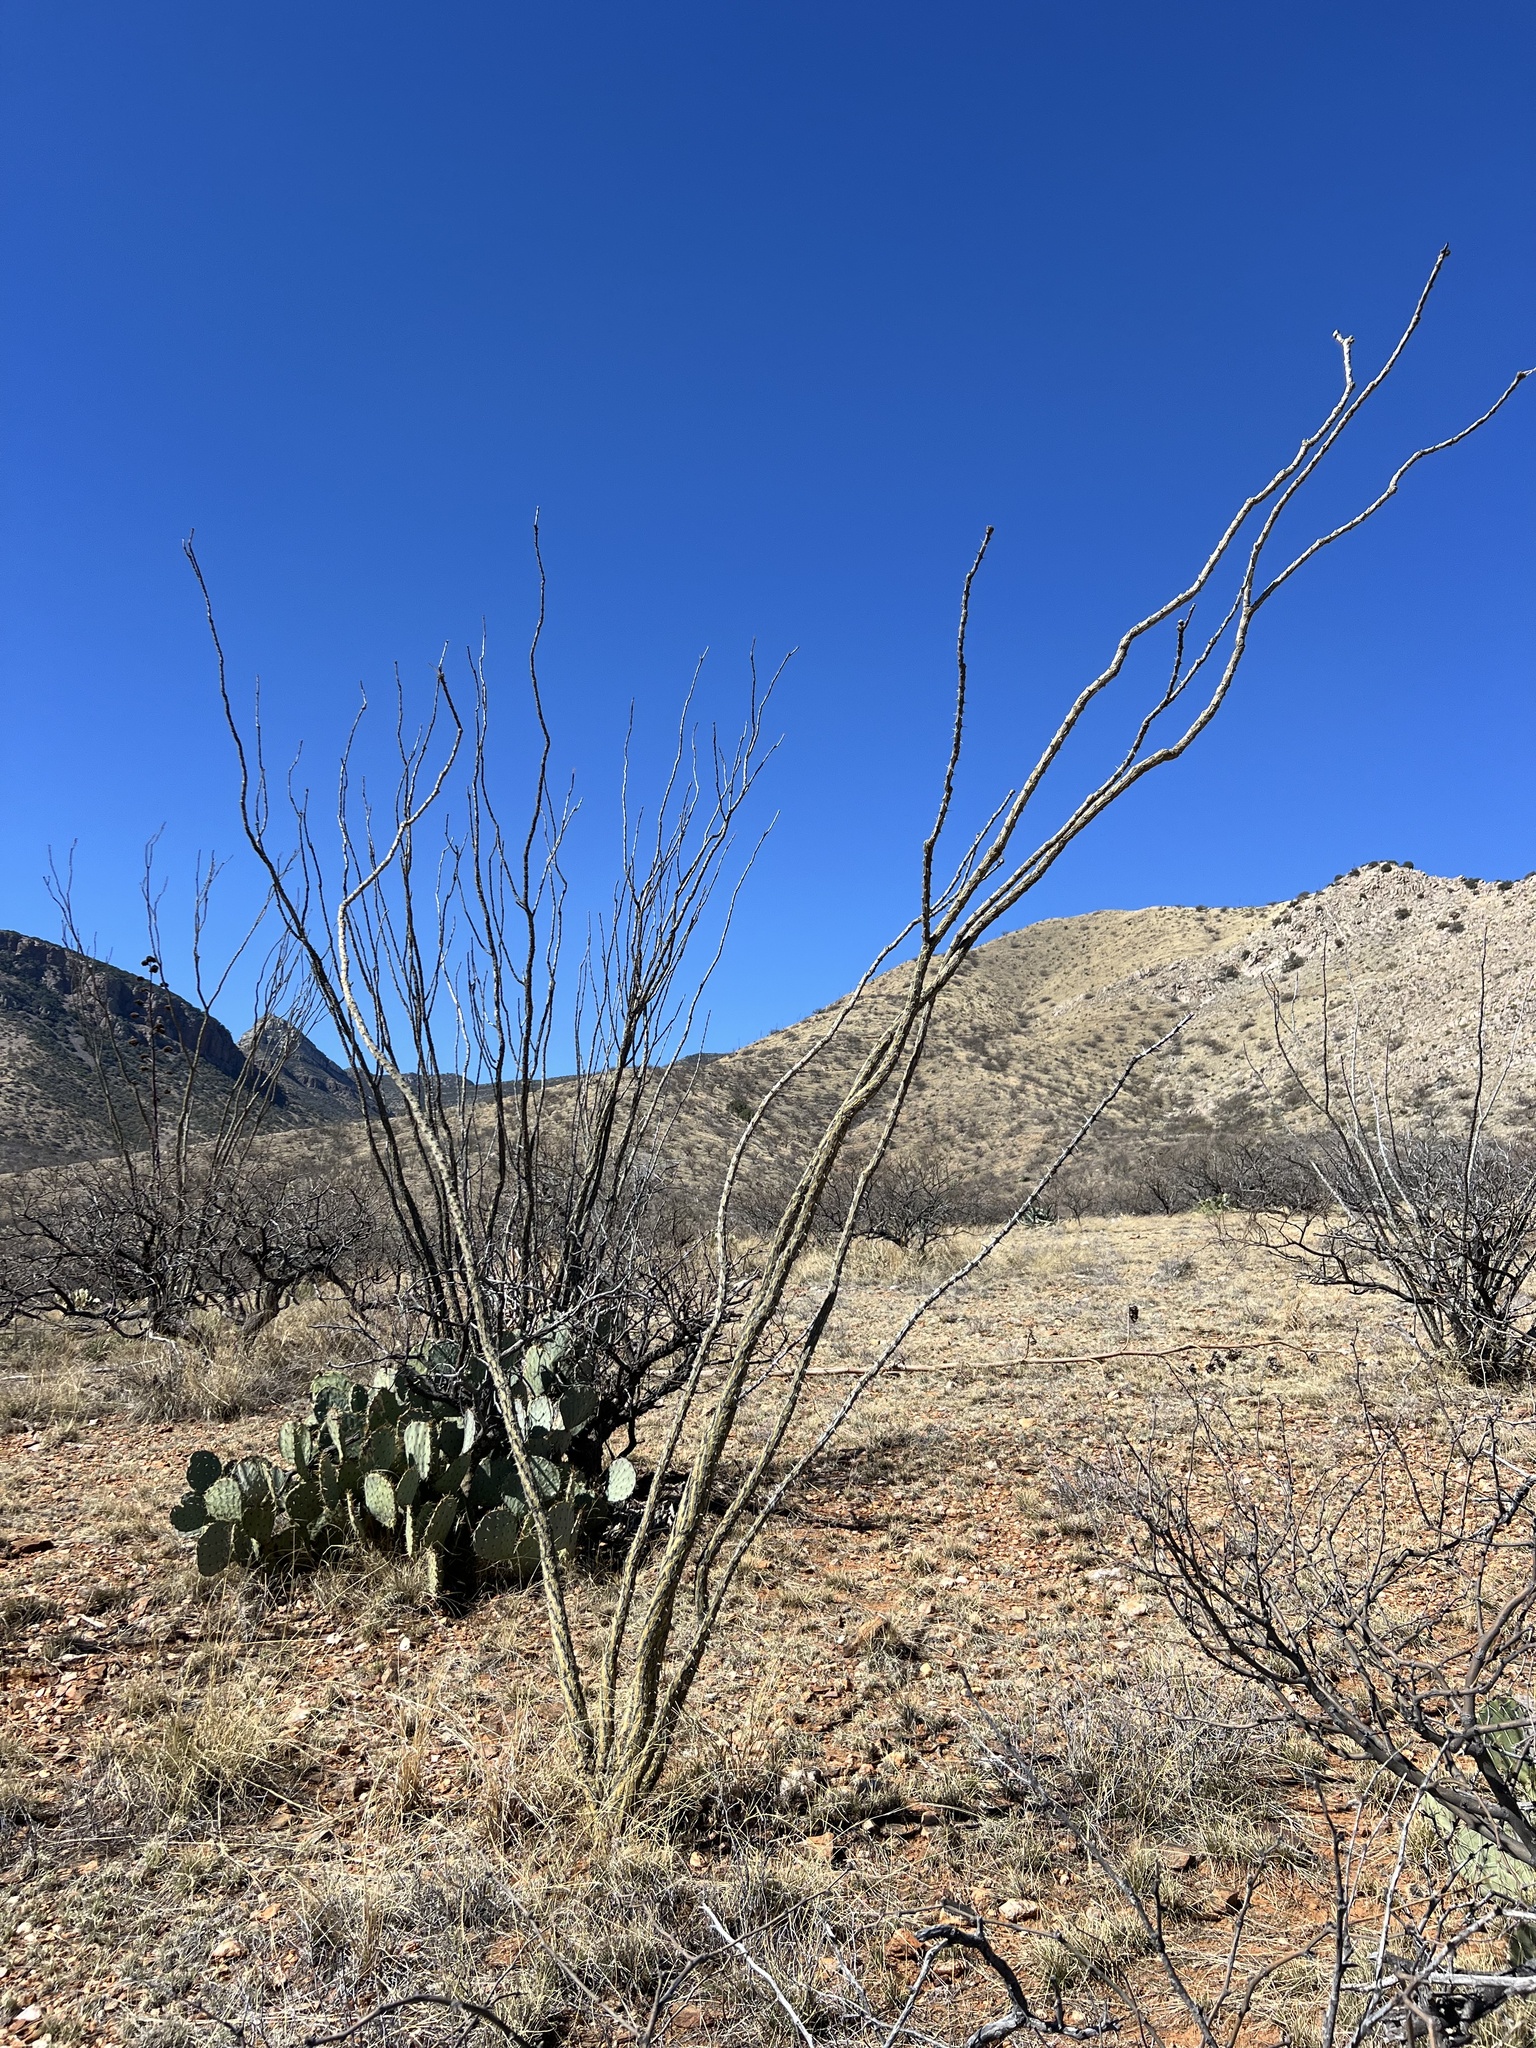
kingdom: Plantae
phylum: Tracheophyta
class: Magnoliopsida
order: Ericales
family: Fouquieriaceae
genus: Fouquieria
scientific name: Fouquieria splendens
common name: Vine-cactus
